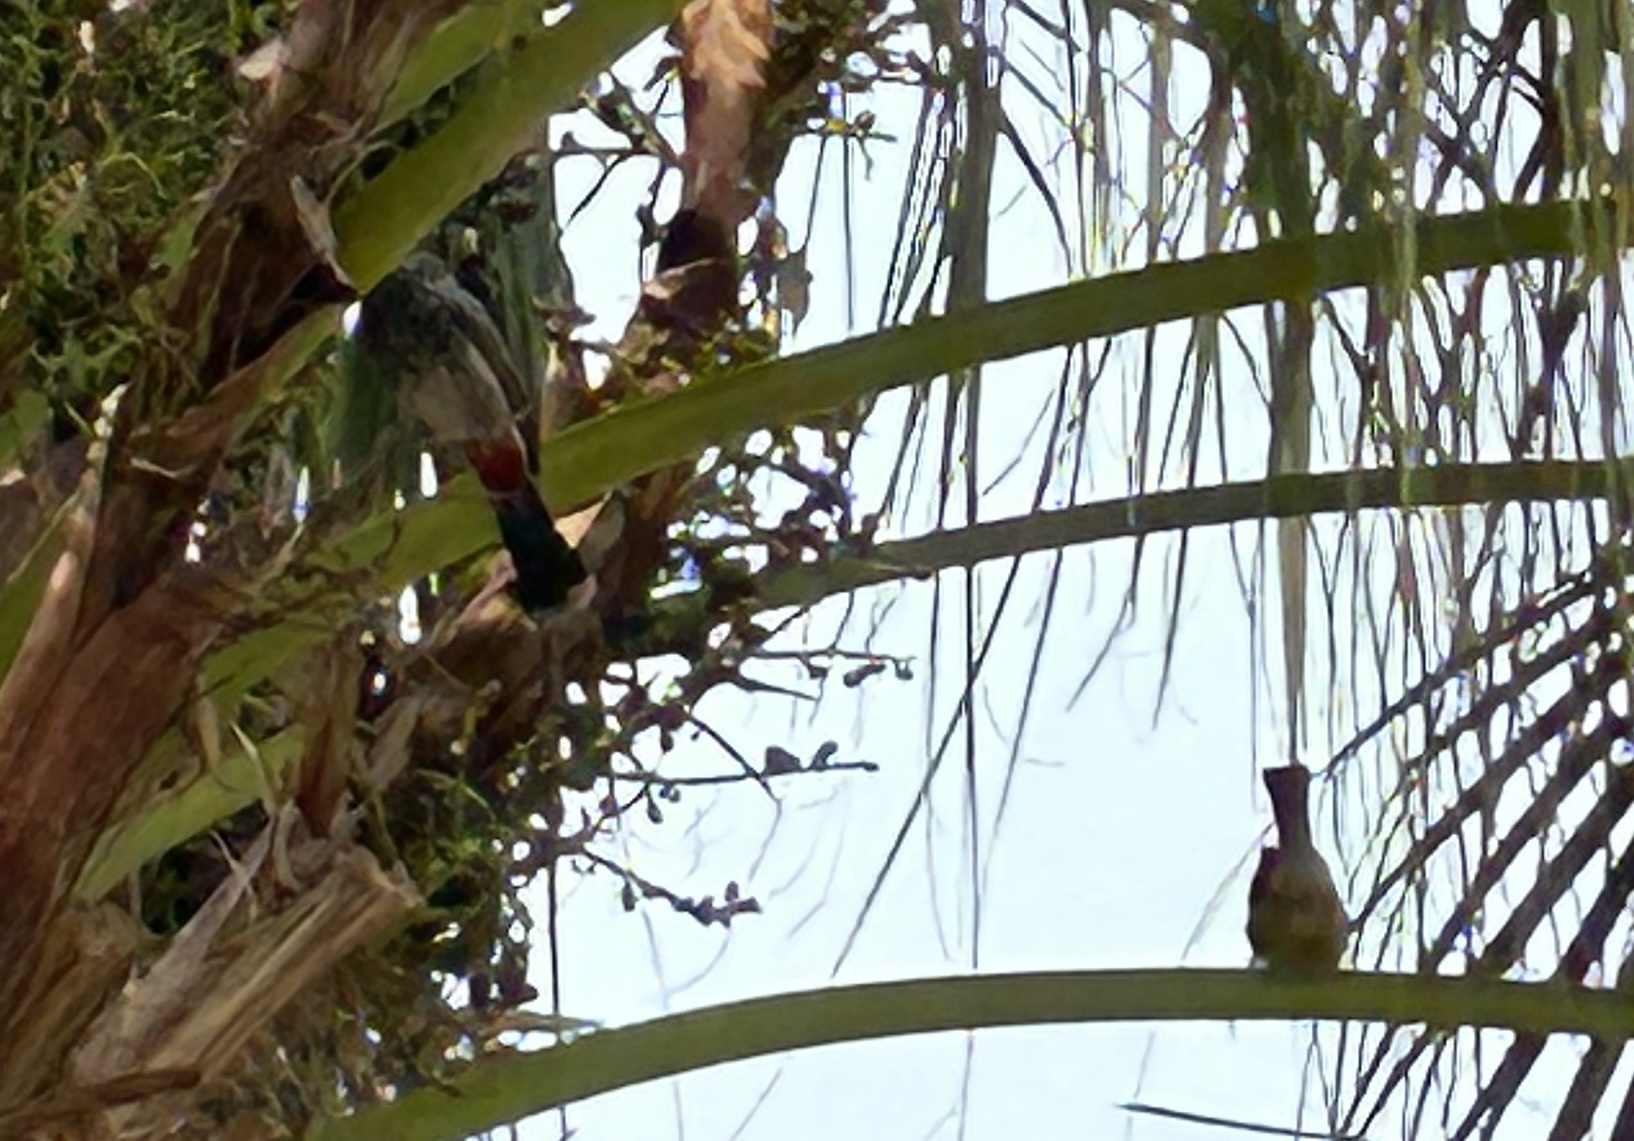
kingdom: Animalia
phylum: Chordata
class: Aves
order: Passeriformes
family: Pycnonotidae
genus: Pycnonotus
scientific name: Pycnonotus cafer
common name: Red-vented bulbul
